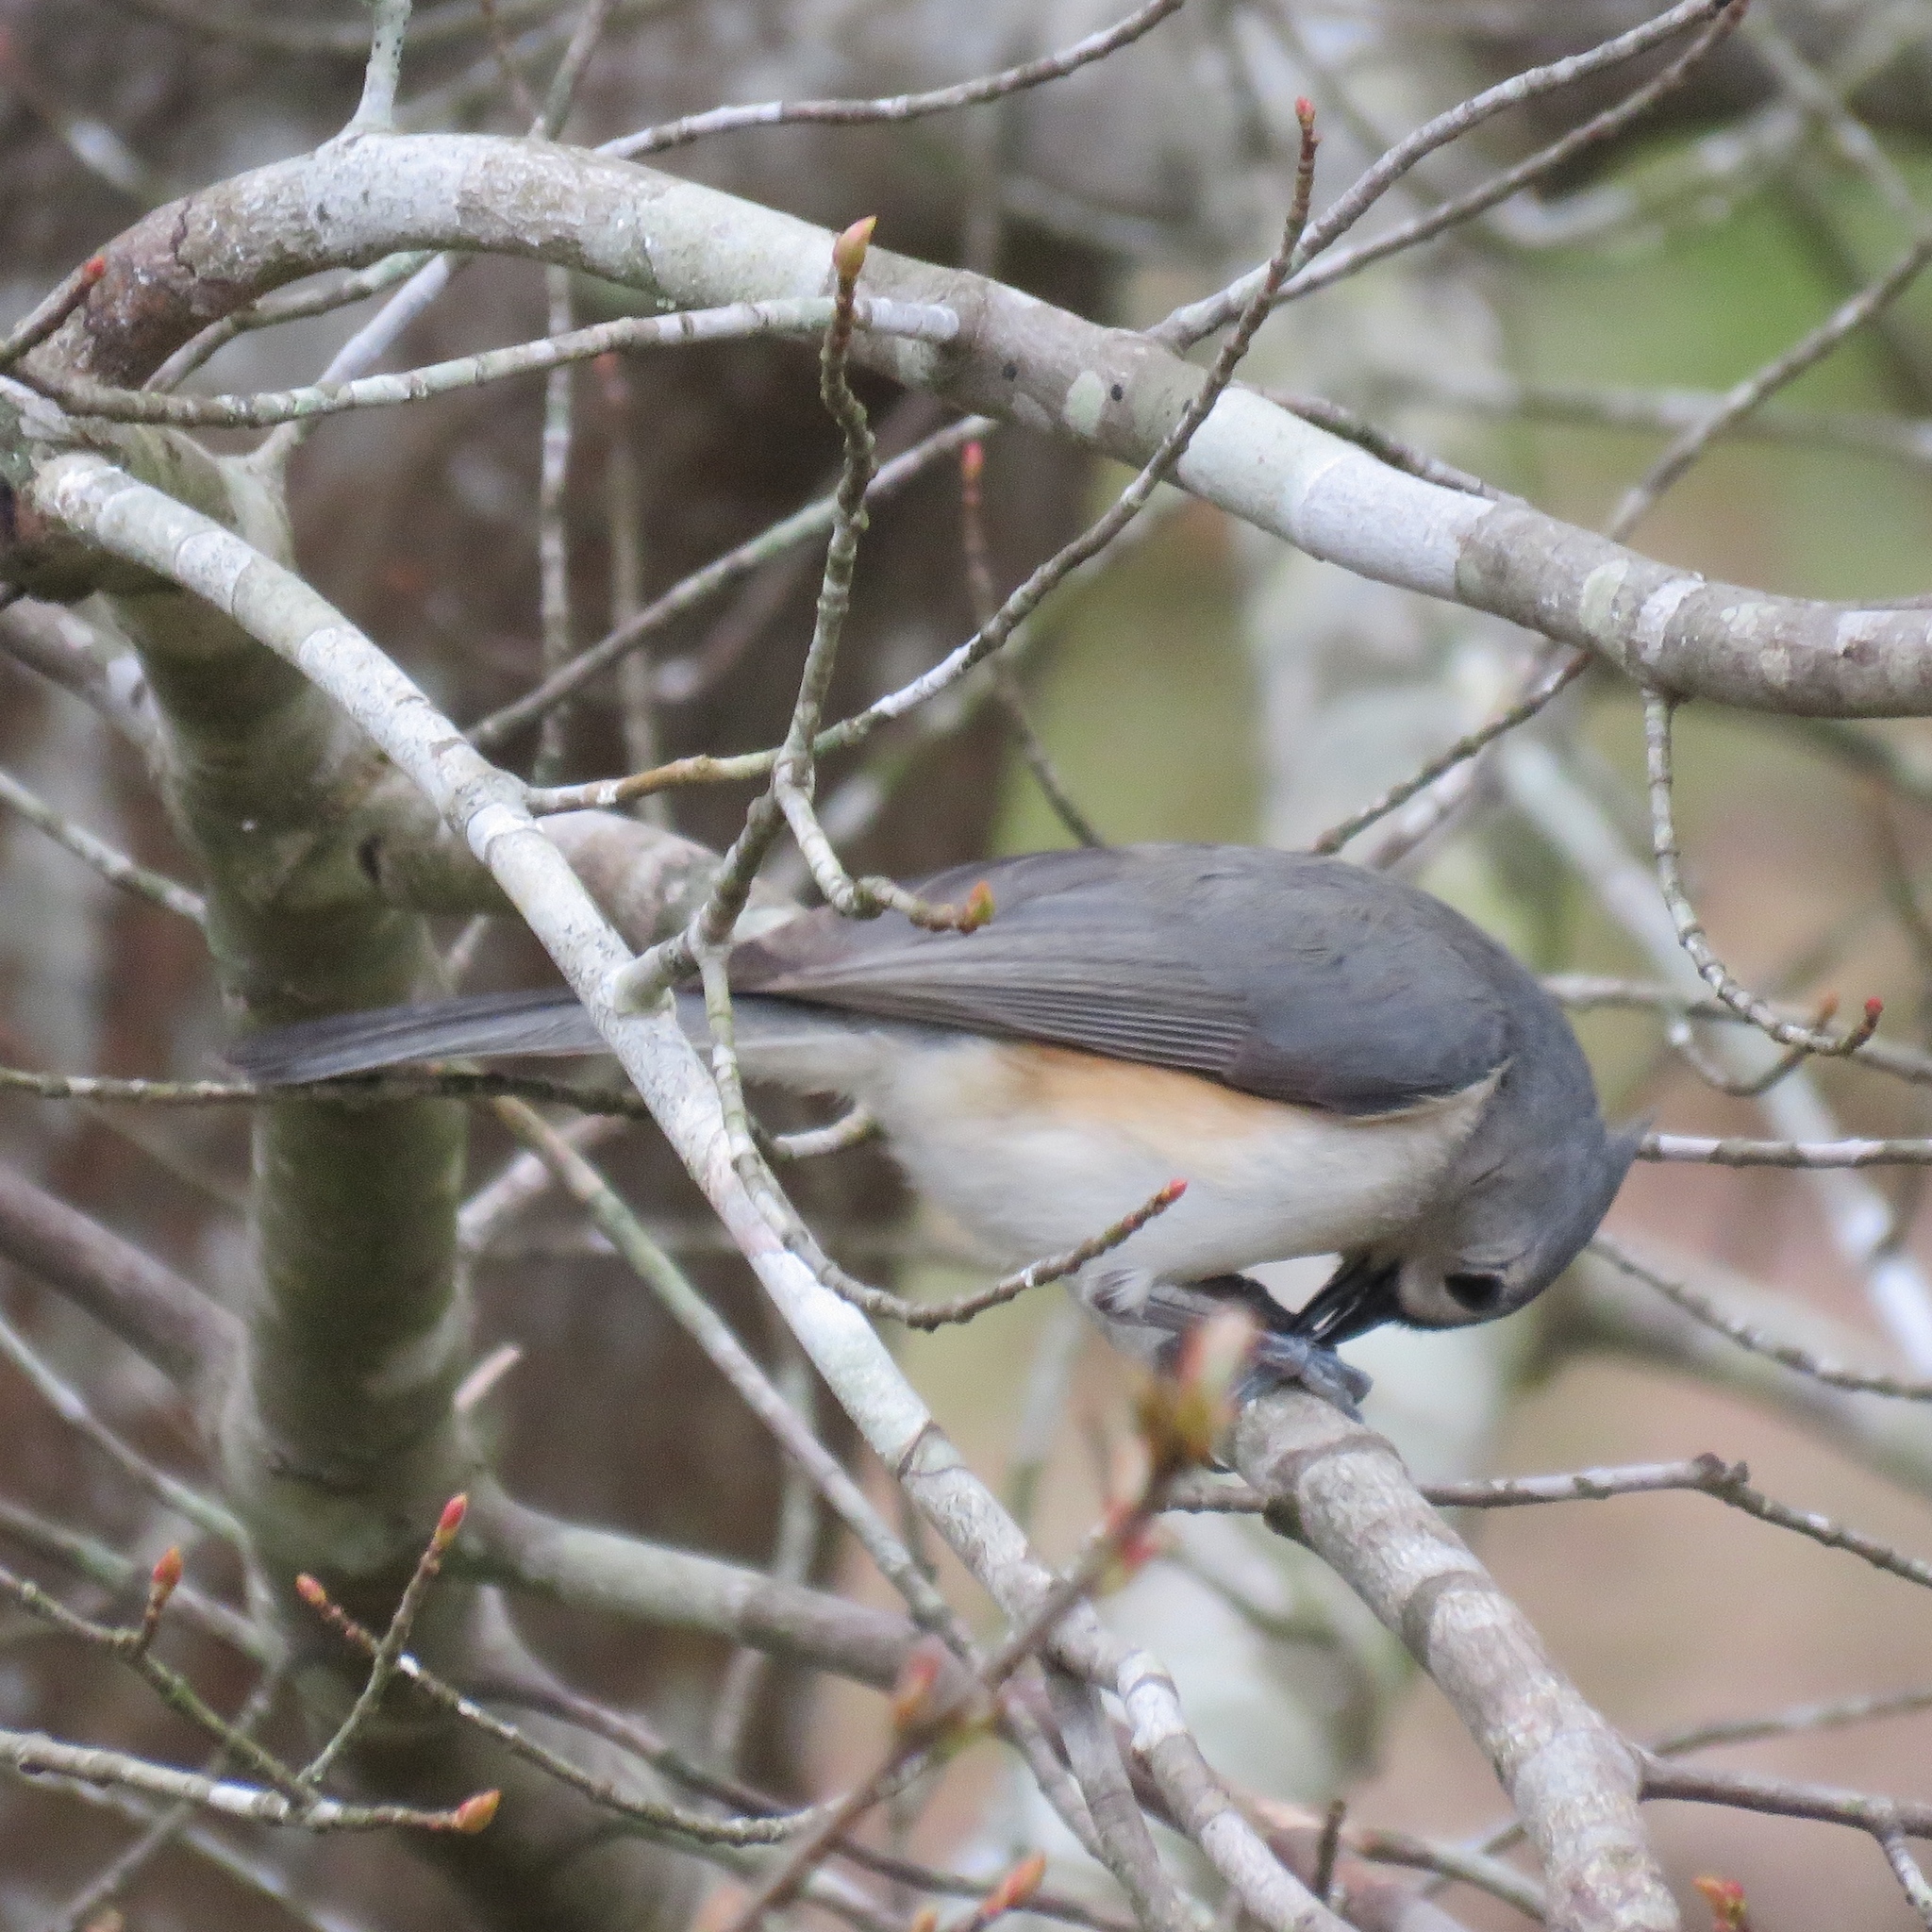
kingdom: Animalia
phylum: Chordata
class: Aves
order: Passeriformes
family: Paridae
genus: Baeolophus
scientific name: Baeolophus bicolor
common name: Tufted titmouse
